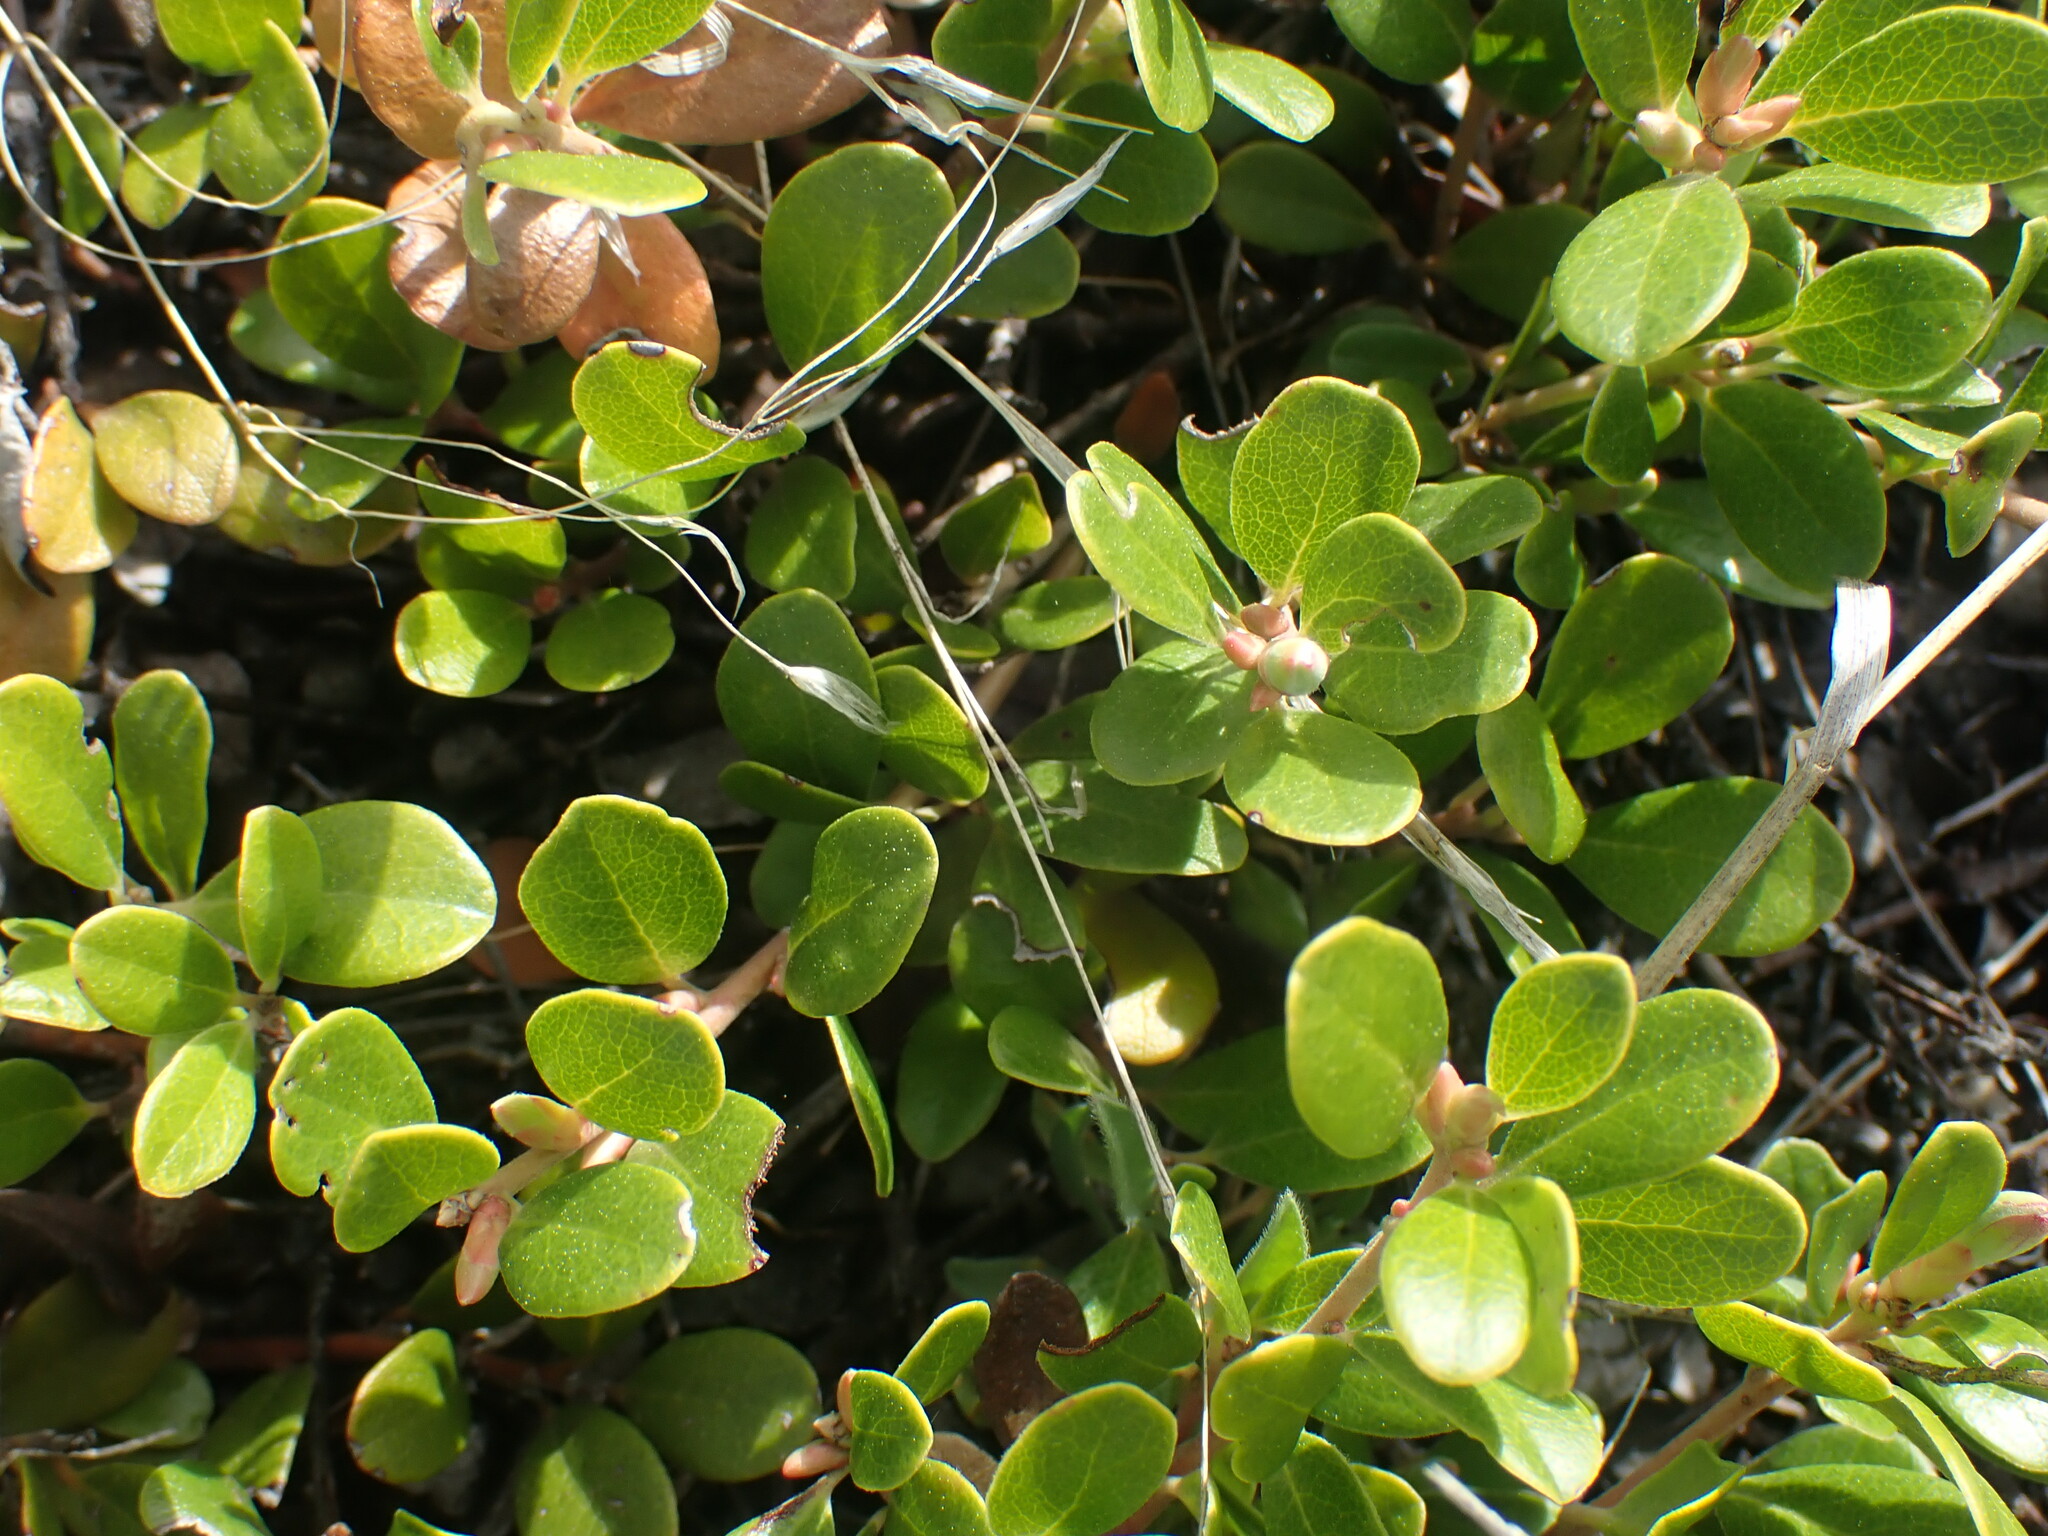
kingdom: Plantae
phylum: Tracheophyta
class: Magnoliopsida
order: Ericales
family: Ericaceae
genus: Arctostaphylos
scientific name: Arctostaphylos uva-ursi
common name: Bearberry
